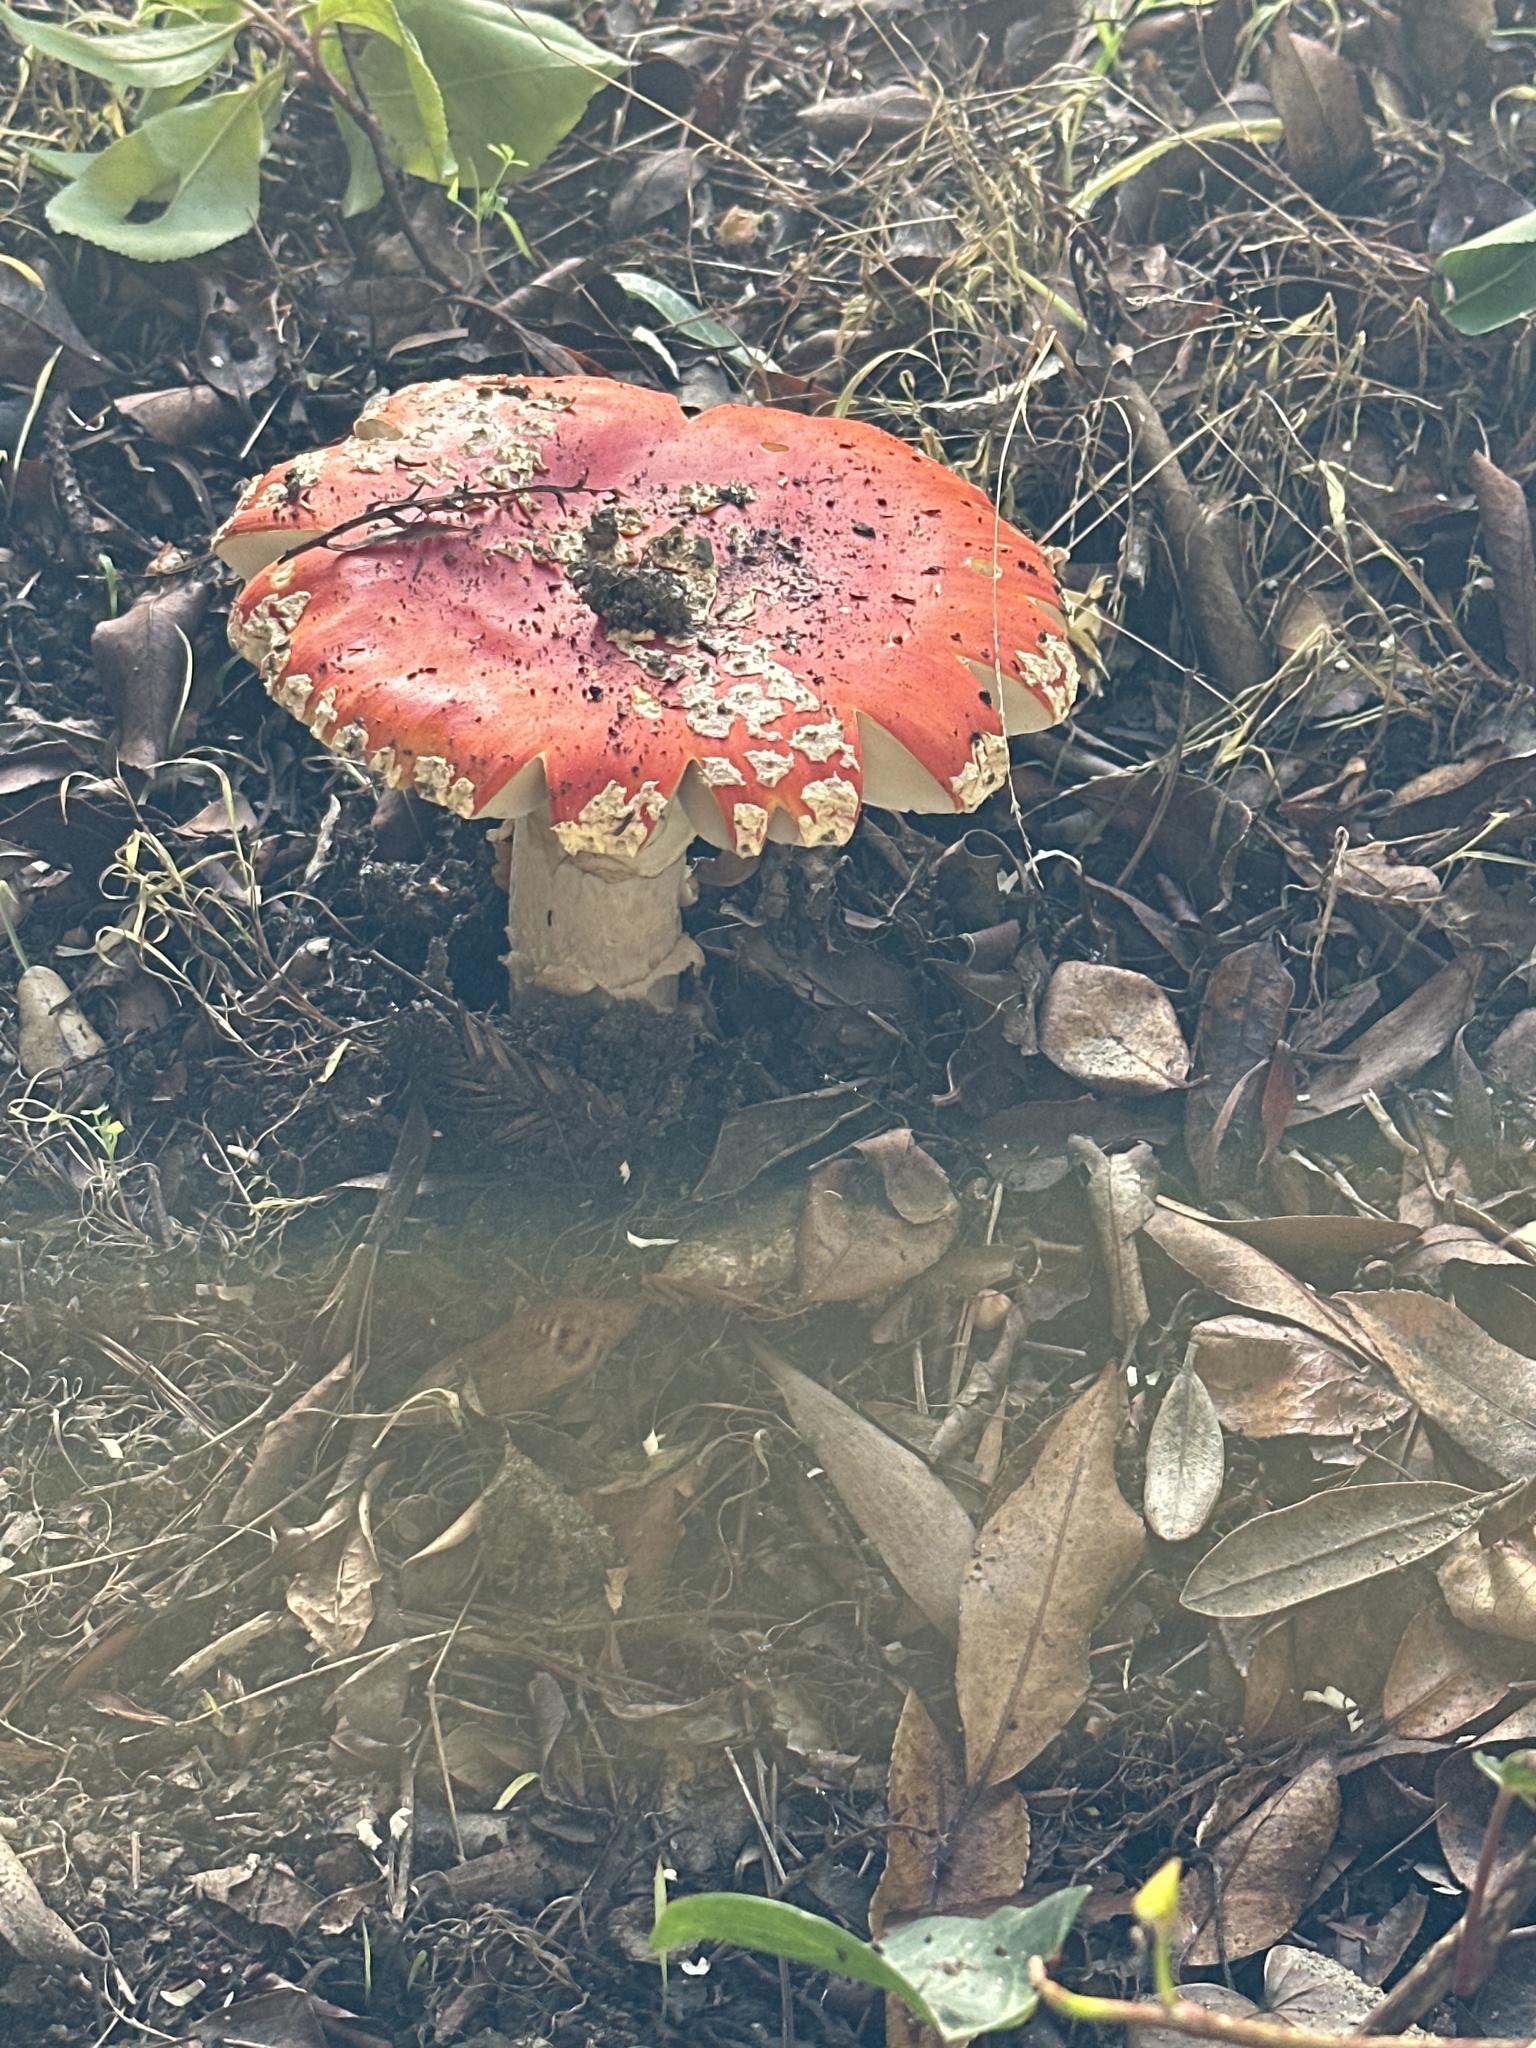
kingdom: Fungi
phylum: Basidiomycota
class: Agaricomycetes
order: Agaricales
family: Amanitaceae
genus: Amanita
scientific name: Amanita muscaria
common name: Fly agaric
